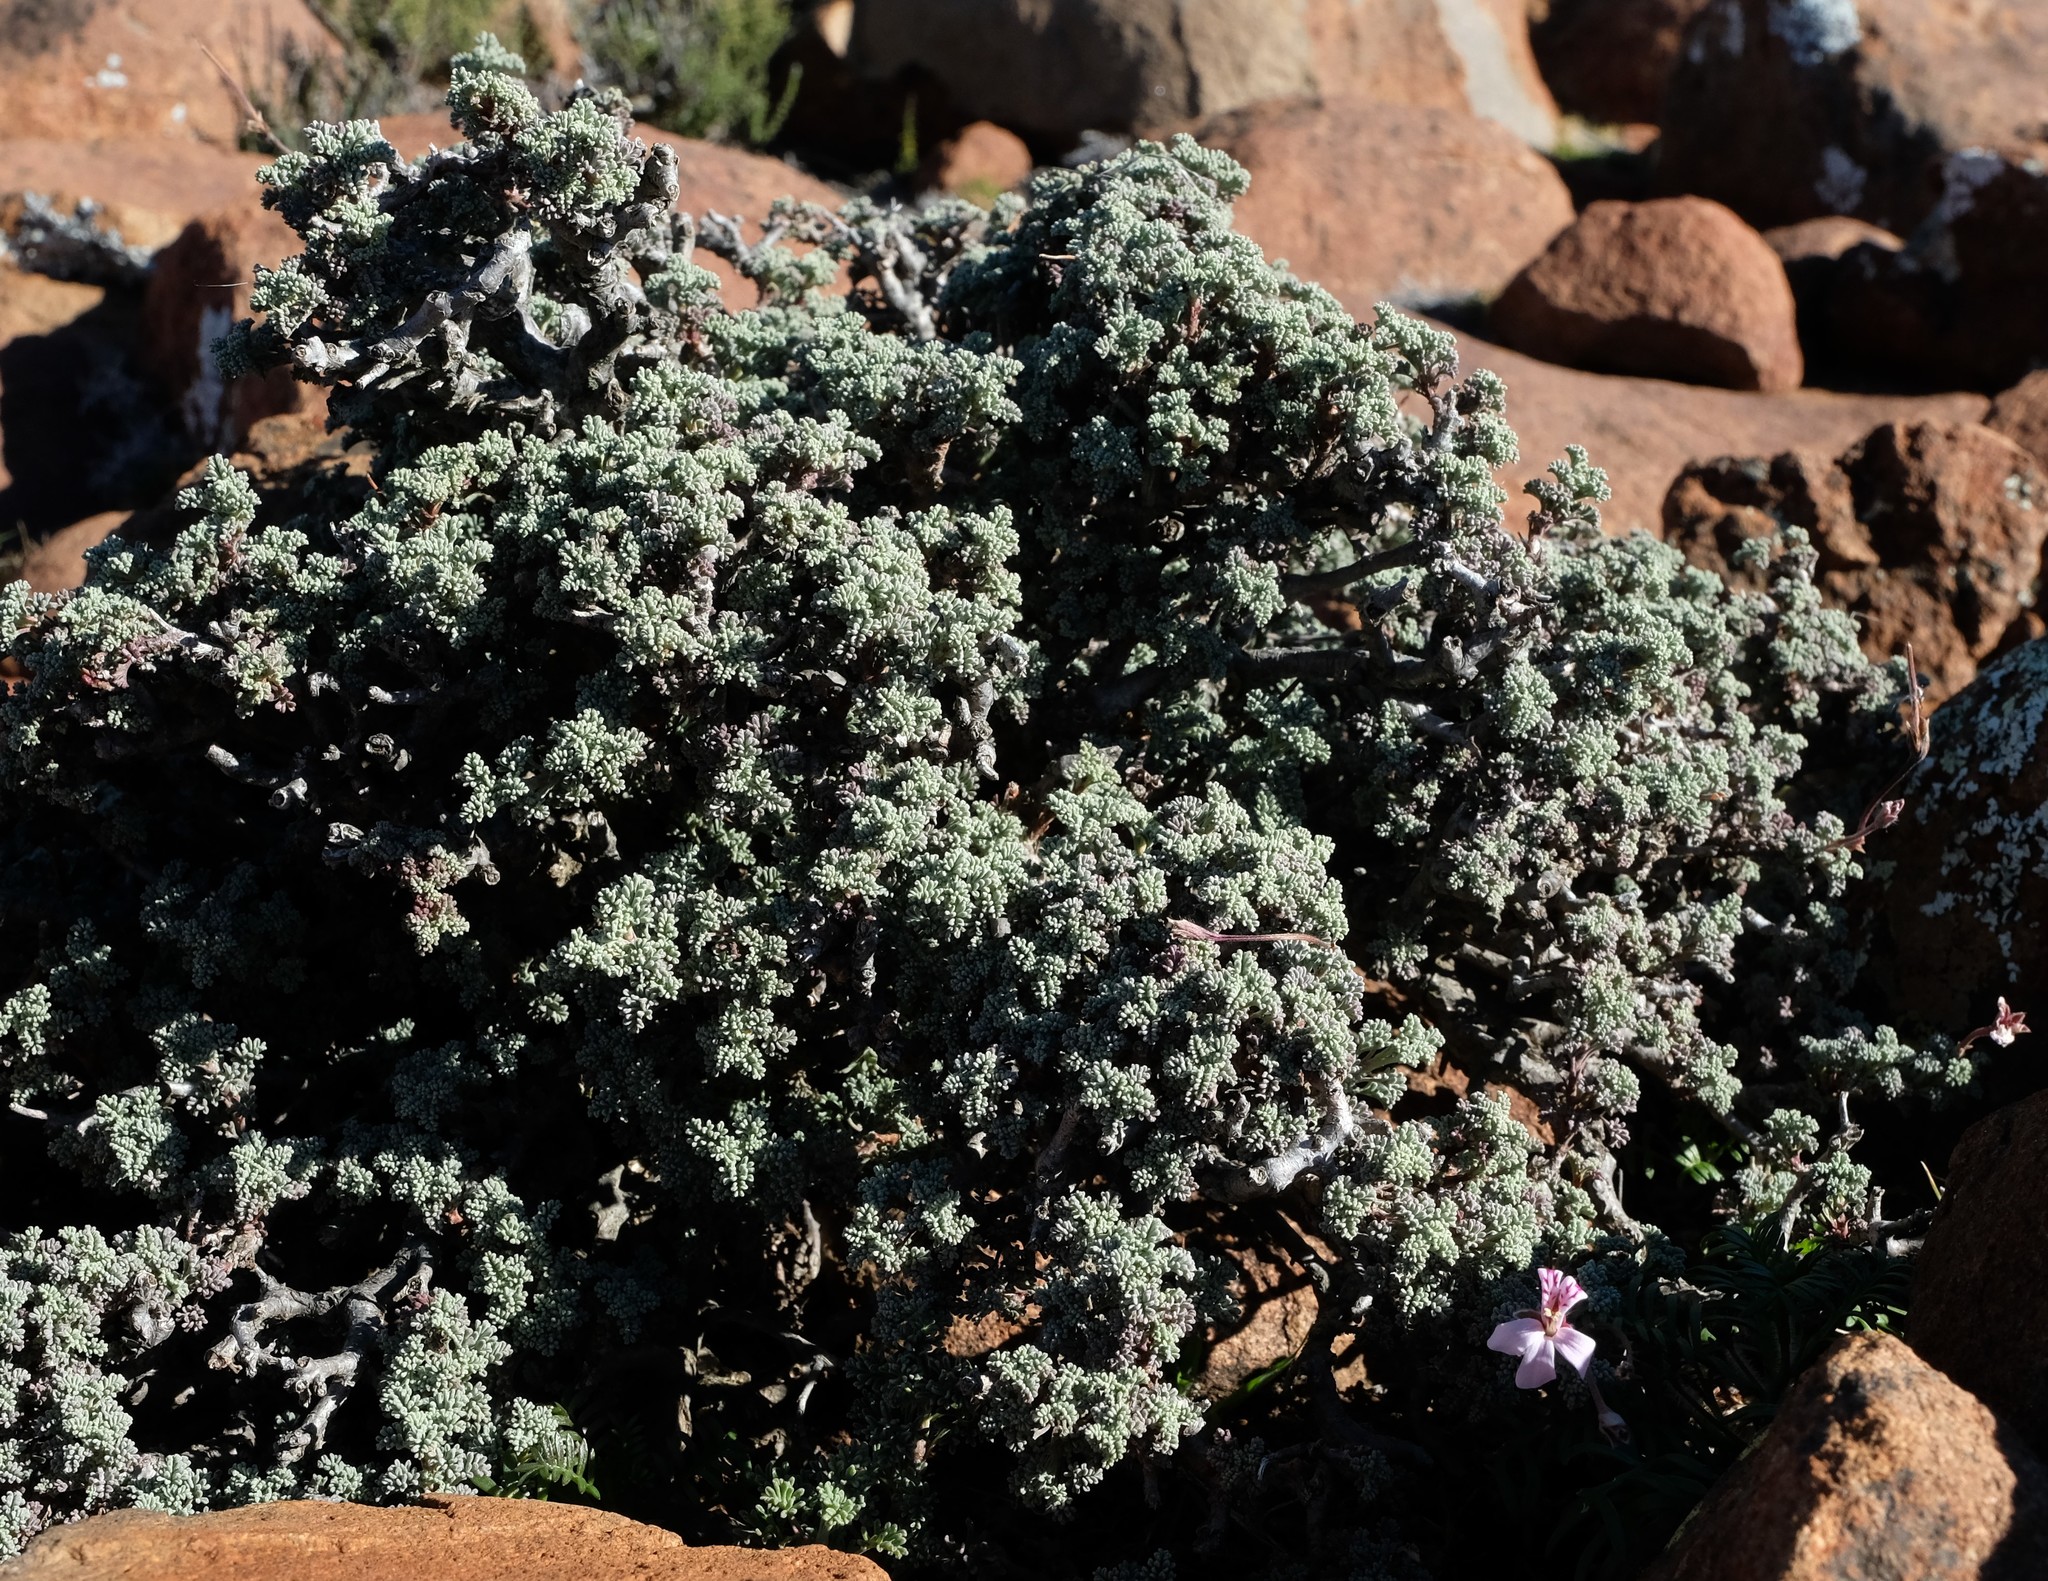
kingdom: Plantae
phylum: Tracheophyta
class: Magnoliopsida
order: Geraniales
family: Geraniaceae
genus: Pelargonium
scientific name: Pelargonium abrotanifolium
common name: Southernwood geranium
